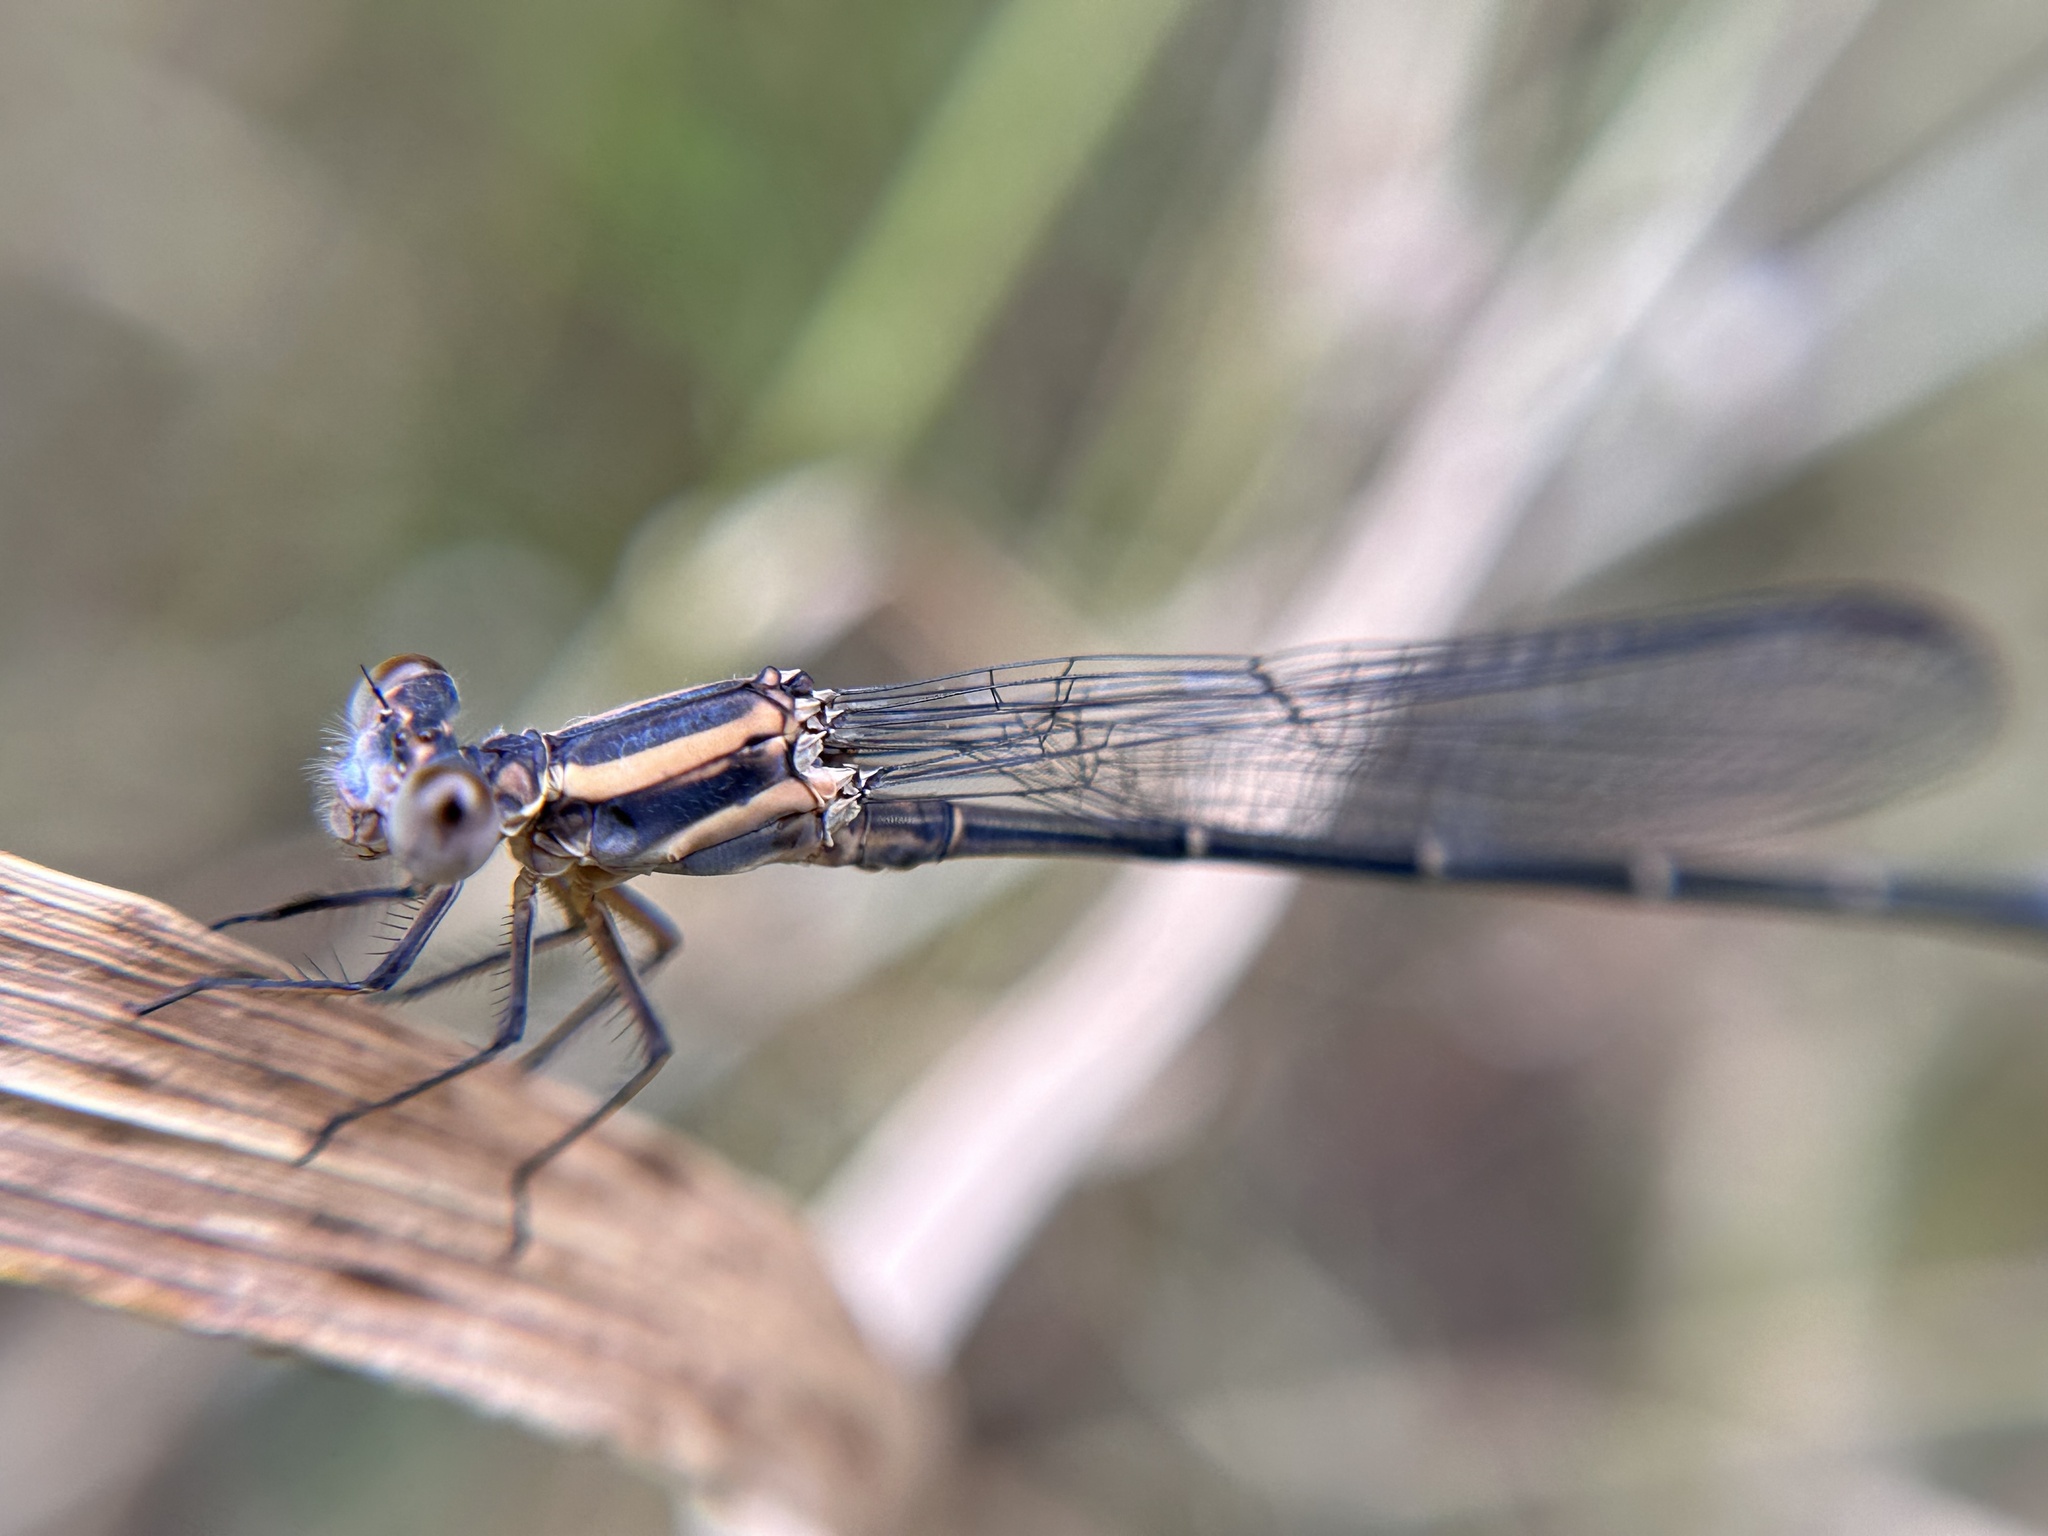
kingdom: Animalia
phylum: Arthropoda
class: Insecta
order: Odonata
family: Coenagrionidae
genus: Argia
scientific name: Argia moesta
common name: Powdered dancer
